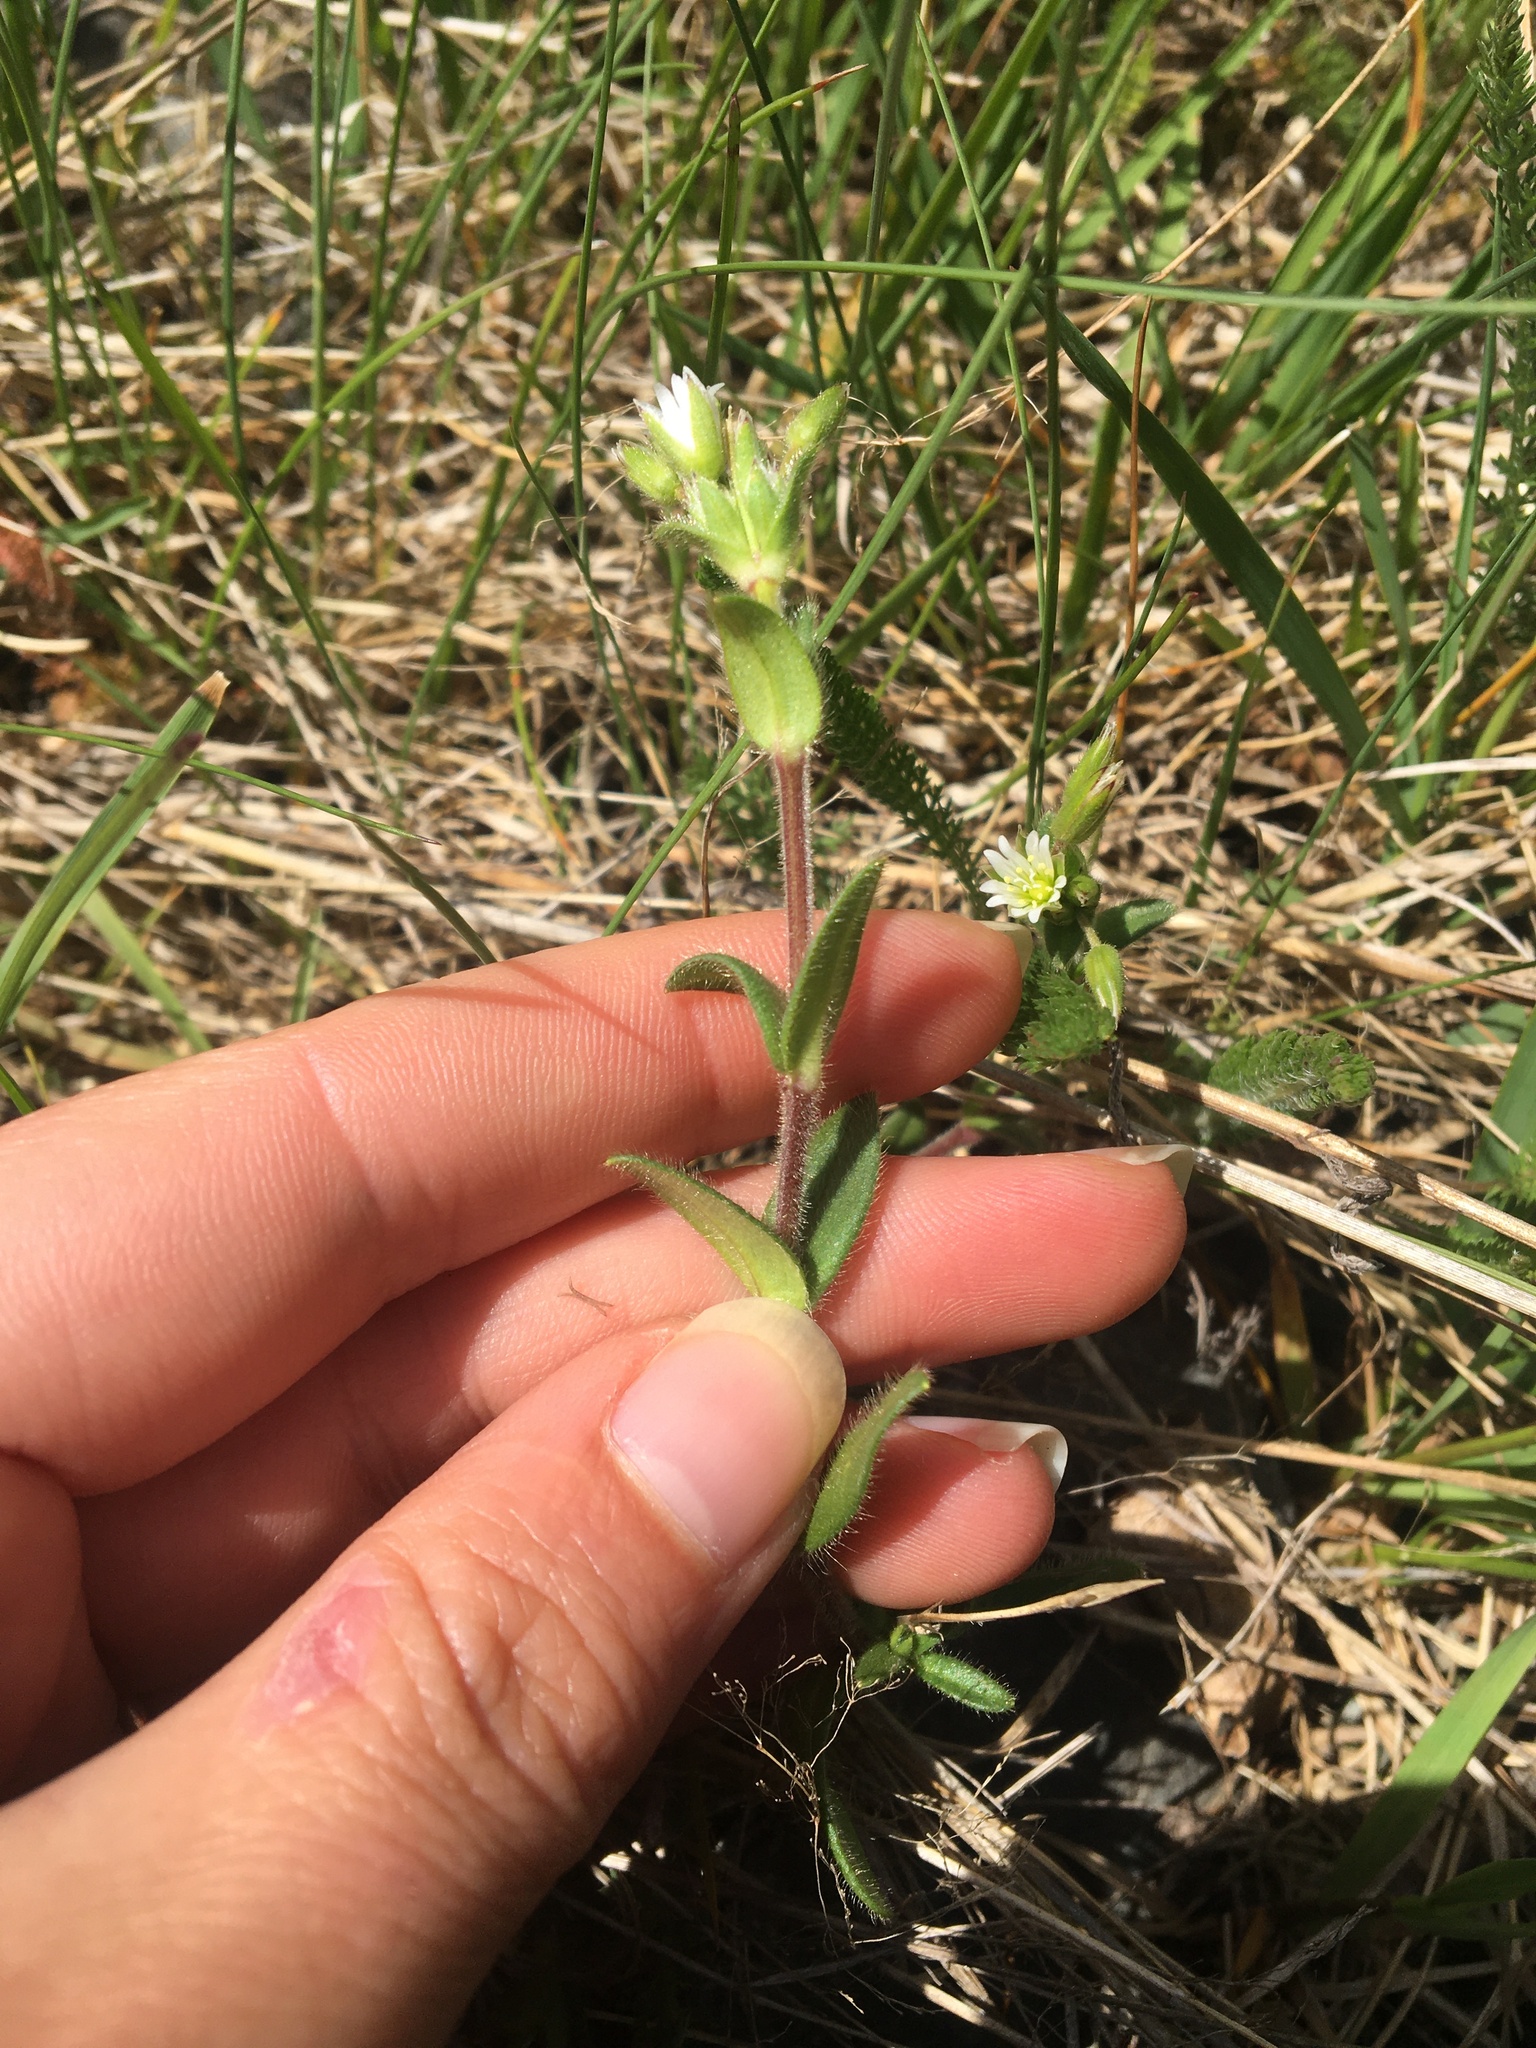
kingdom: Plantae
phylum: Tracheophyta
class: Magnoliopsida
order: Caryophyllales
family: Caryophyllaceae
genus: Cerastium
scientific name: Cerastium fontanum
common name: Common mouse-ear
